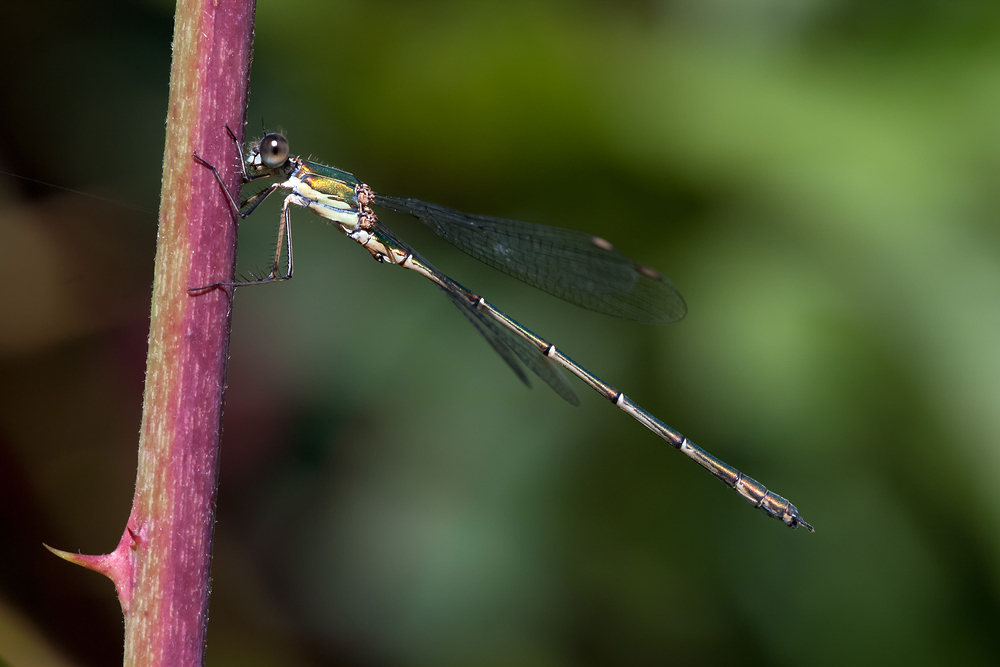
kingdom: Animalia
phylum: Arthropoda
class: Insecta
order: Odonata
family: Lestidae
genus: Chalcolestes
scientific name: Chalcolestes viridis
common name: Green emerald damselfly
